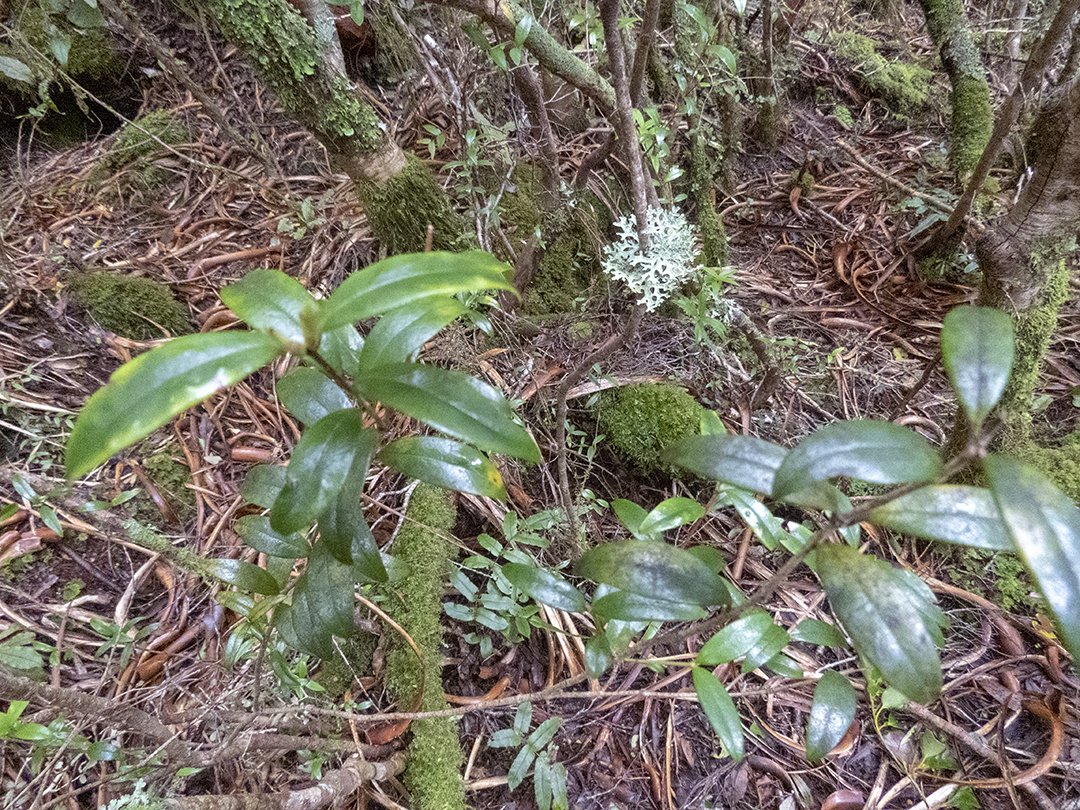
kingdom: Plantae
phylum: Tracheophyta
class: Magnoliopsida
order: Myrtales
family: Myrtaceae
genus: Metrosideros
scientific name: Metrosideros umbellata
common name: Southern rata
